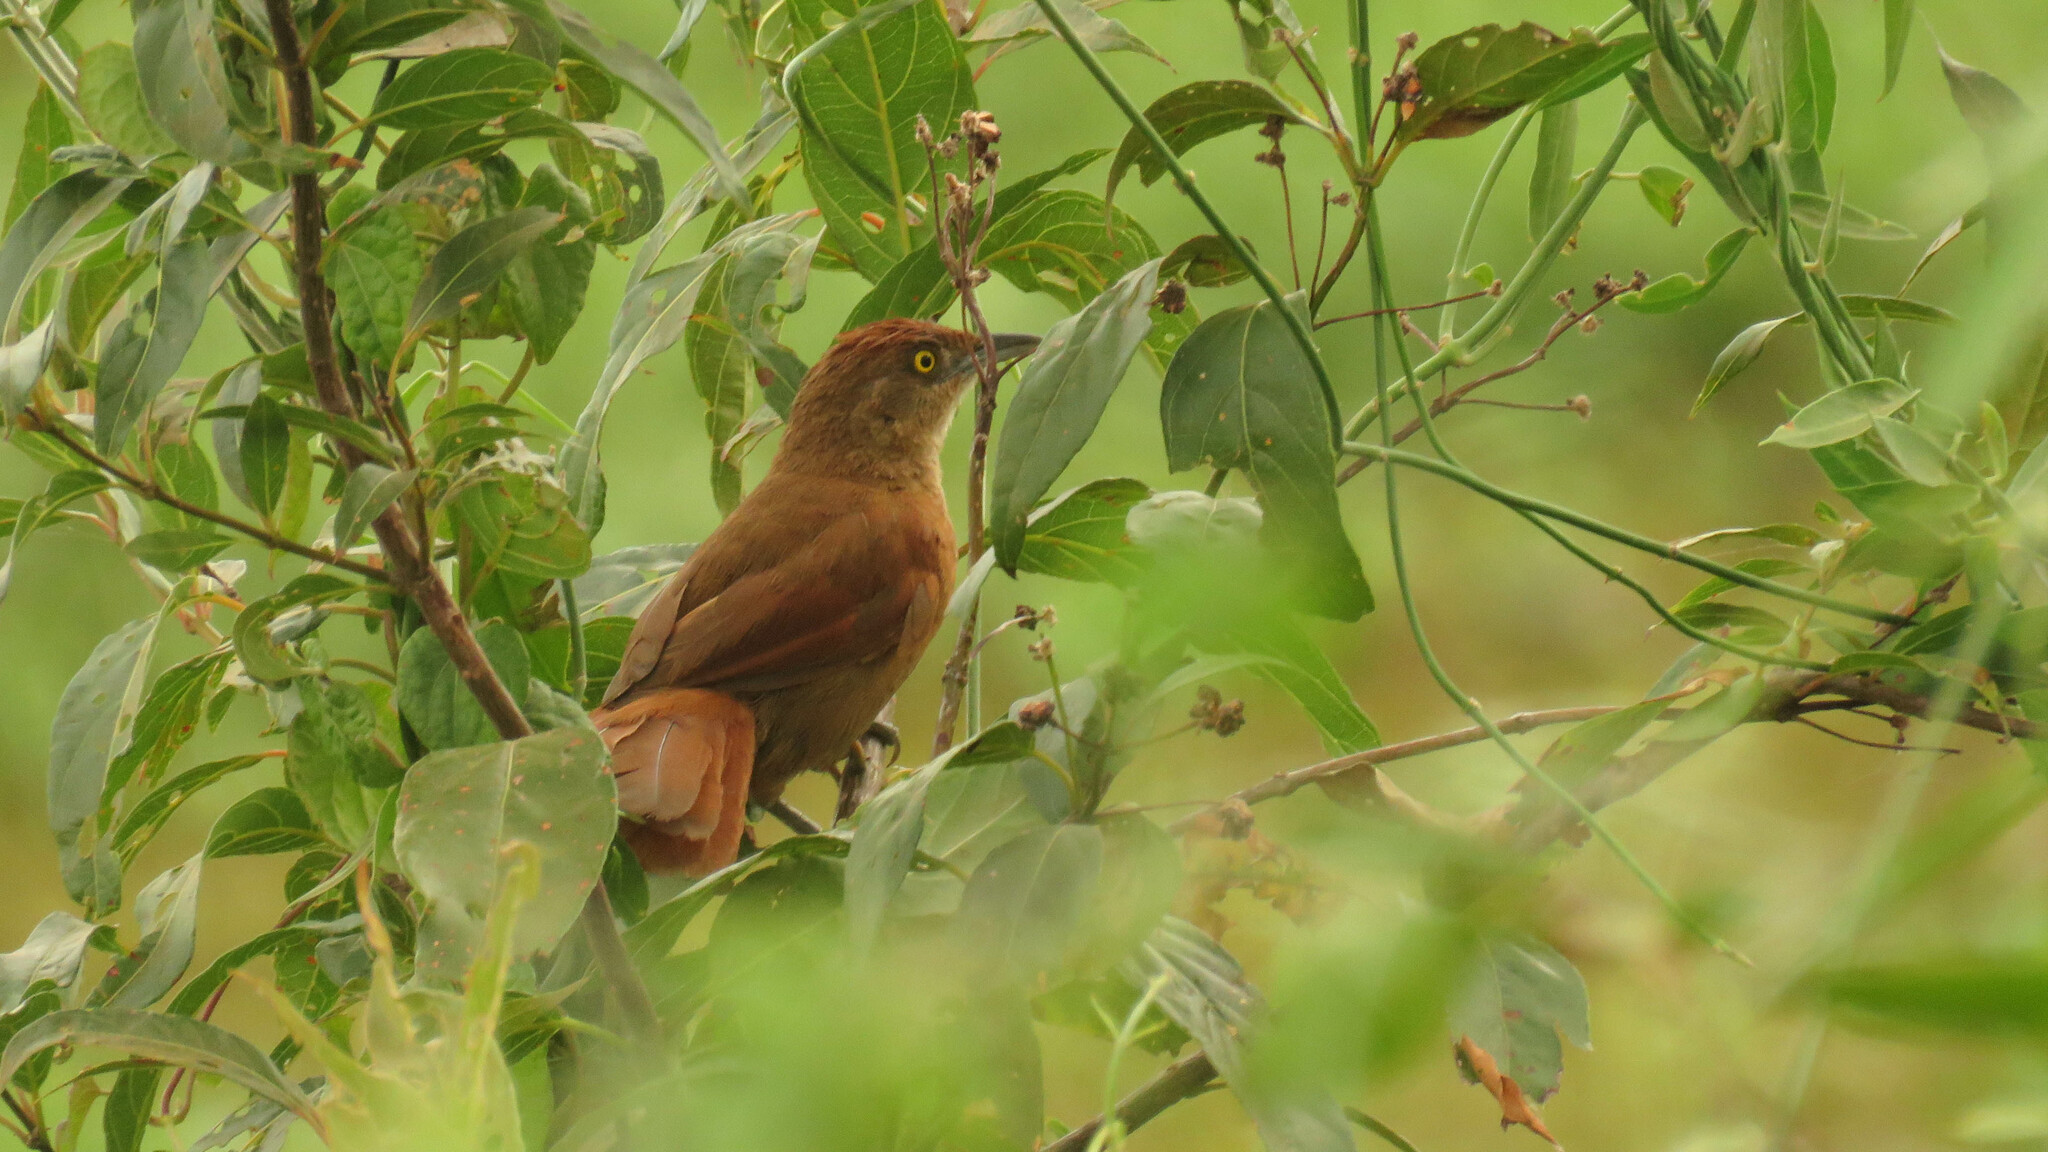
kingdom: Animalia
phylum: Chordata
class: Aves
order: Passeriformes
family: Furnariidae
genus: Phacellodomus
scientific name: Phacellodomus ruber
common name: Greater thornbird
